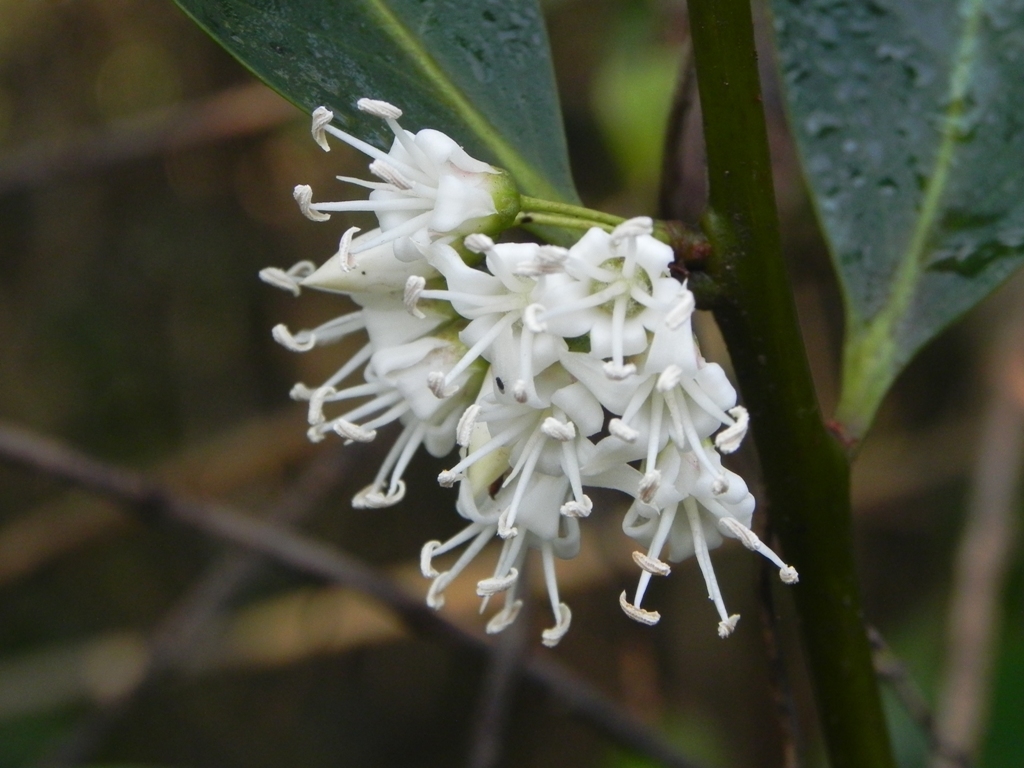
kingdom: Plantae
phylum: Tracheophyta
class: Magnoliopsida
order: Ericales
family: Primulaceae
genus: Aegiceras
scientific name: Aegiceras corniculatum
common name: River mangrove
